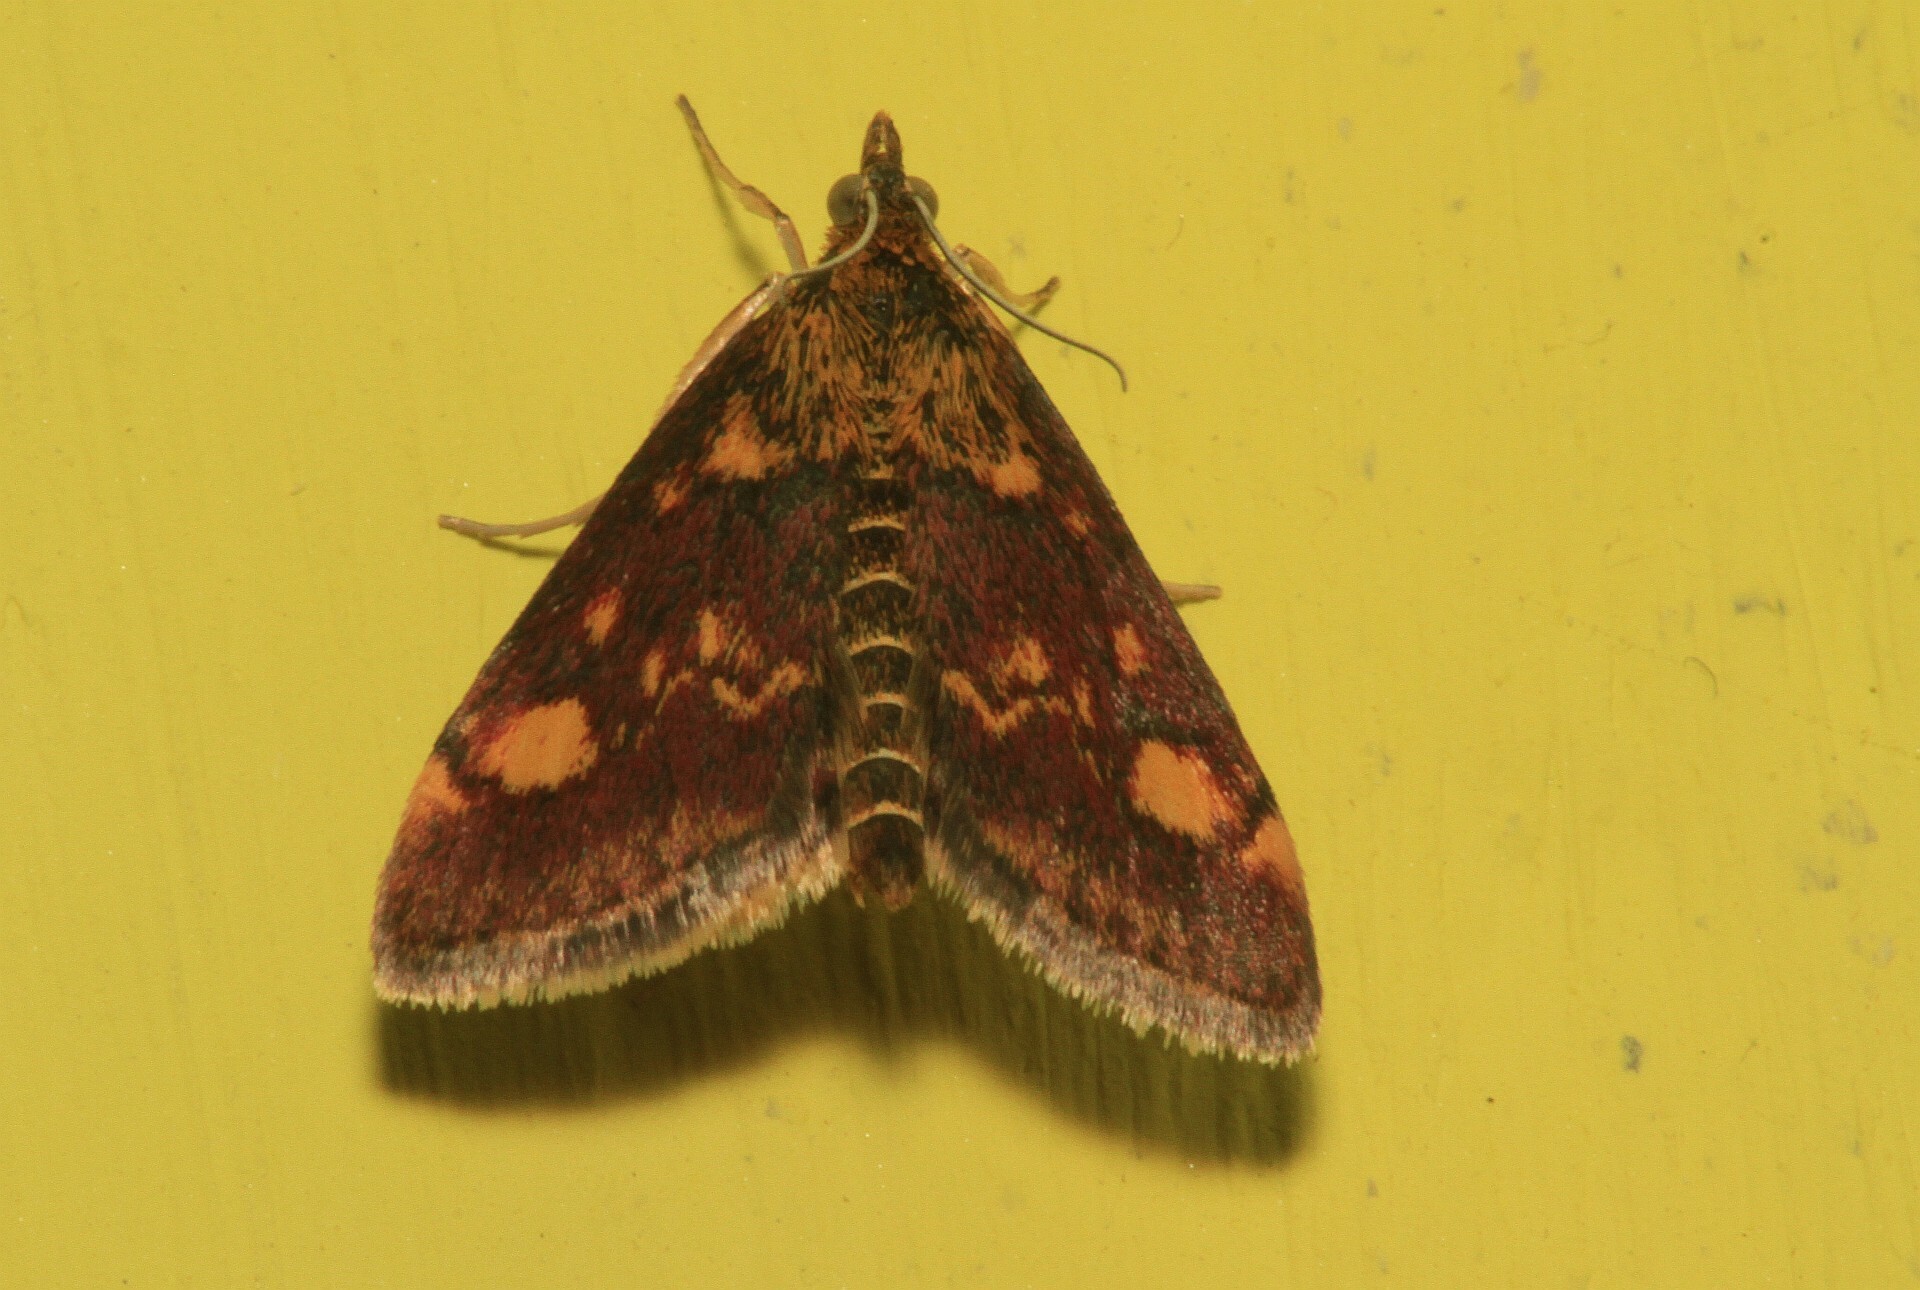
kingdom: Animalia
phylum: Arthropoda
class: Insecta
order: Lepidoptera
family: Crambidae
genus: Pyrausta
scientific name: Pyrausta aurata
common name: Small purple & gold
